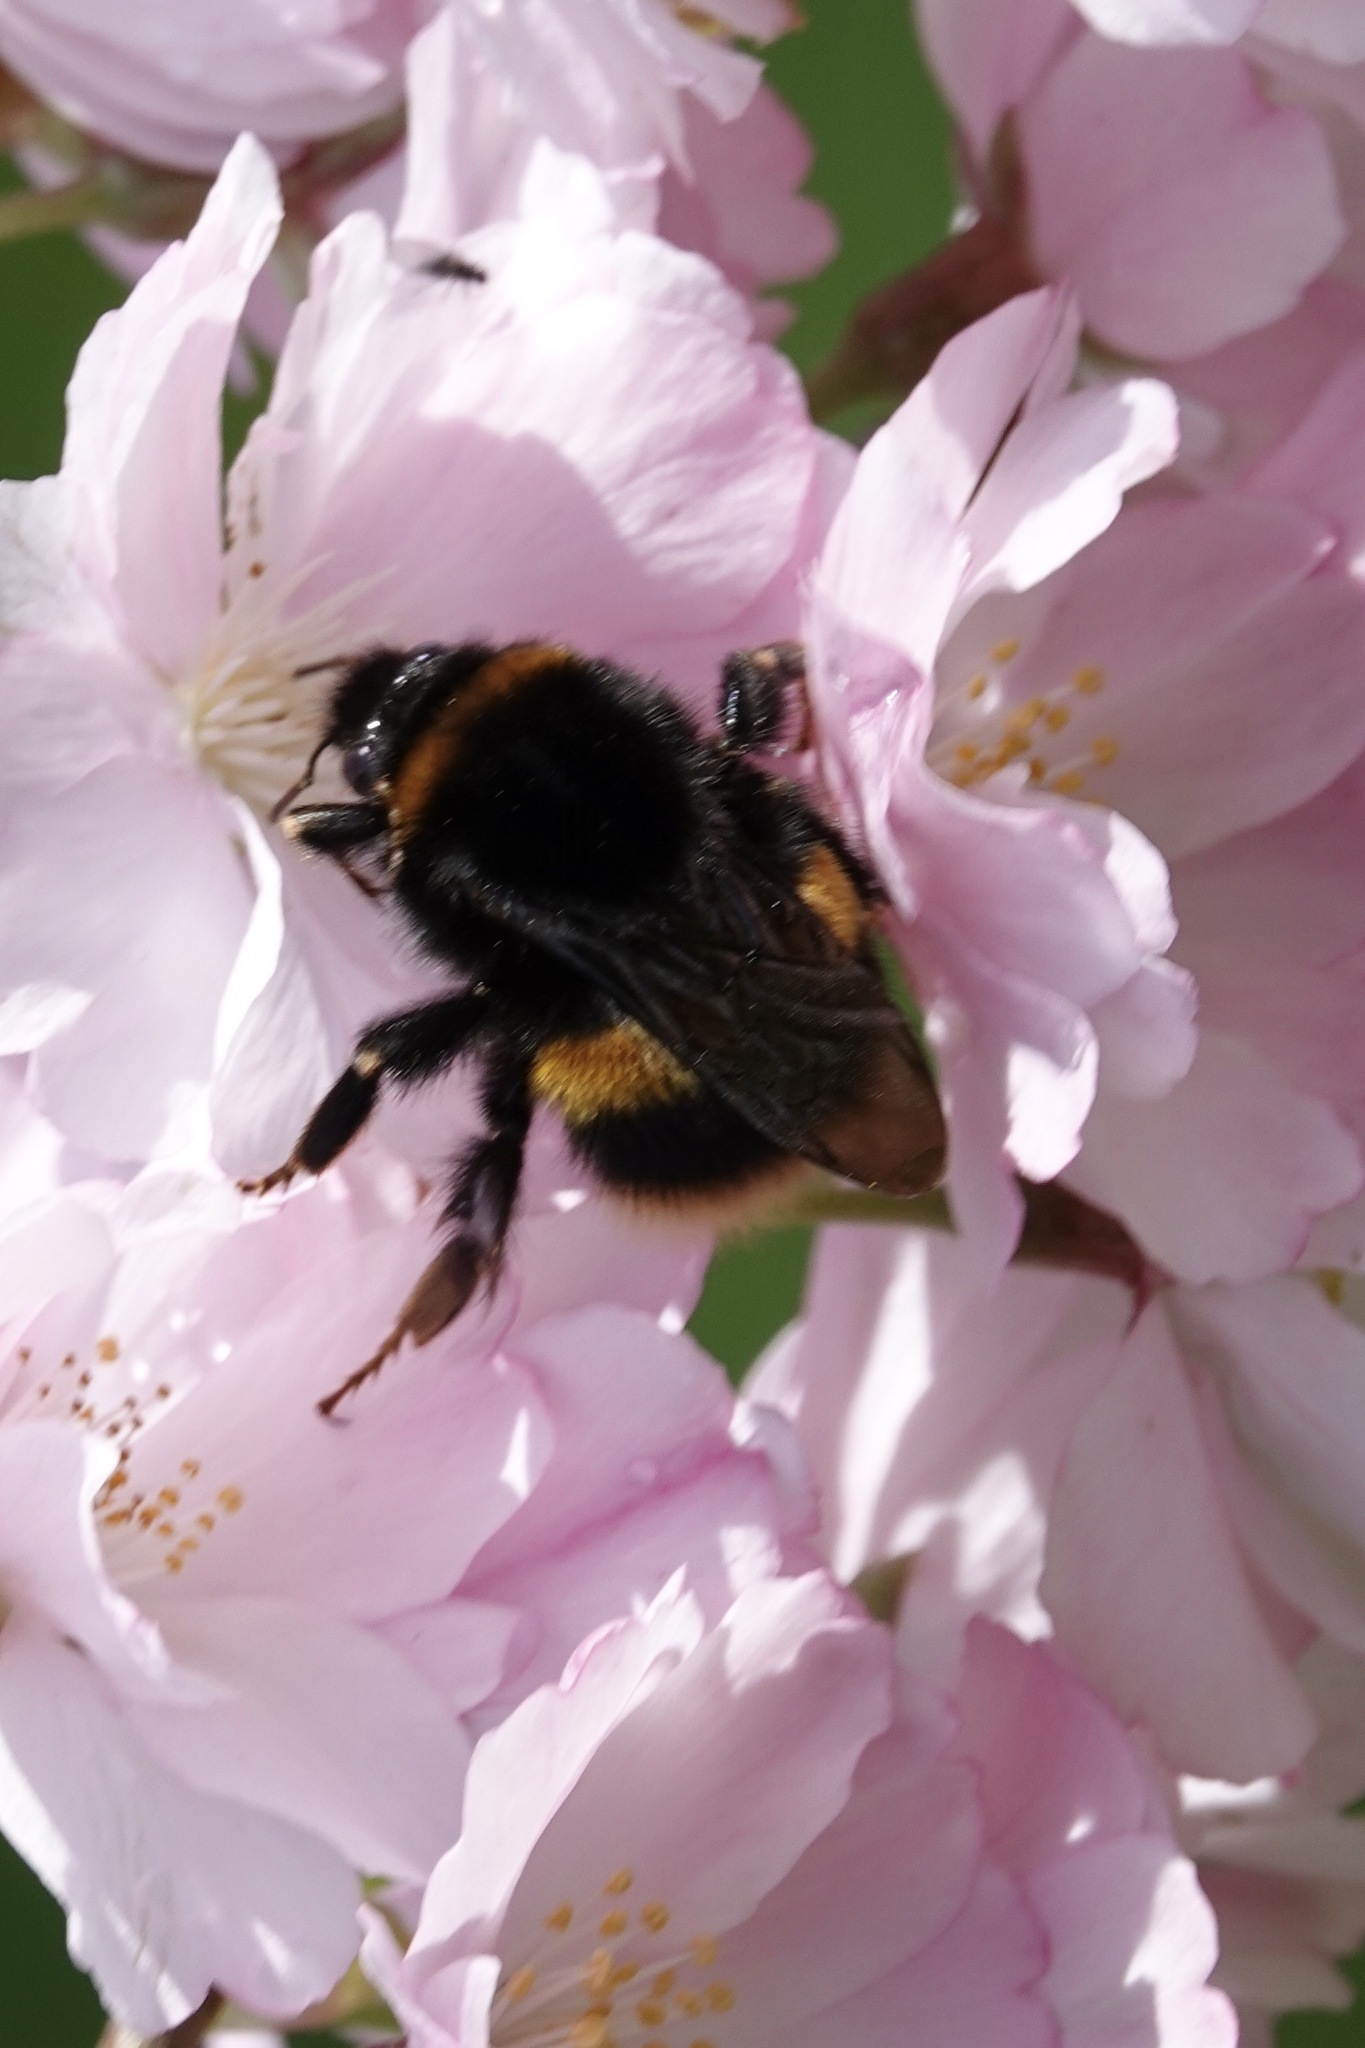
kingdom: Animalia
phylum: Arthropoda
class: Insecta
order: Hymenoptera
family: Apidae
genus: Bombus
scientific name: Bombus terrestris
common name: Buff-tailed bumblebee
